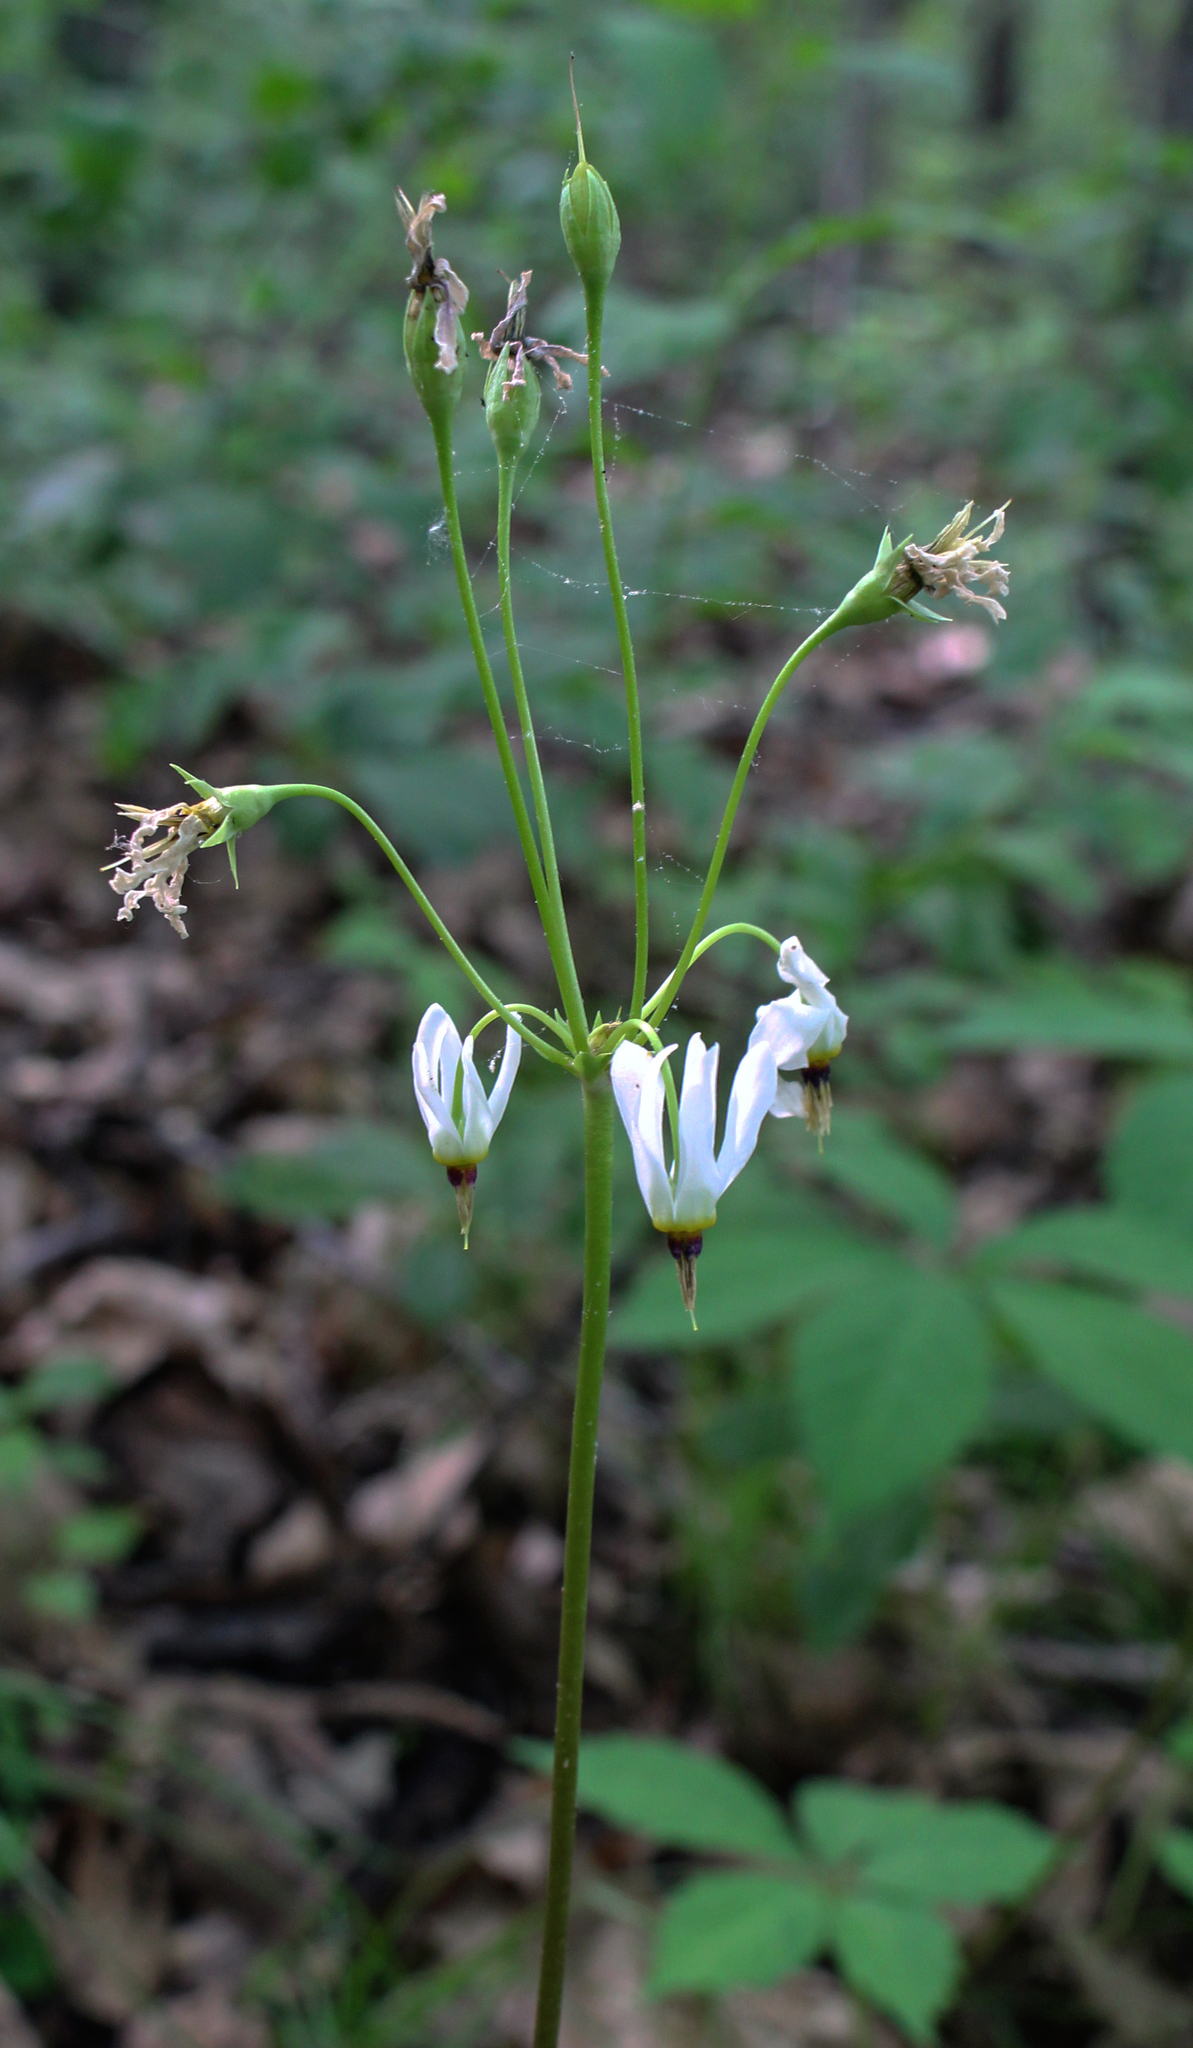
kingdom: Plantae
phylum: Tracheophyta
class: Magnoliopsida
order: Ericales
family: Primulaceae
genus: Dodecatheon
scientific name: Dodecatheon meadia
